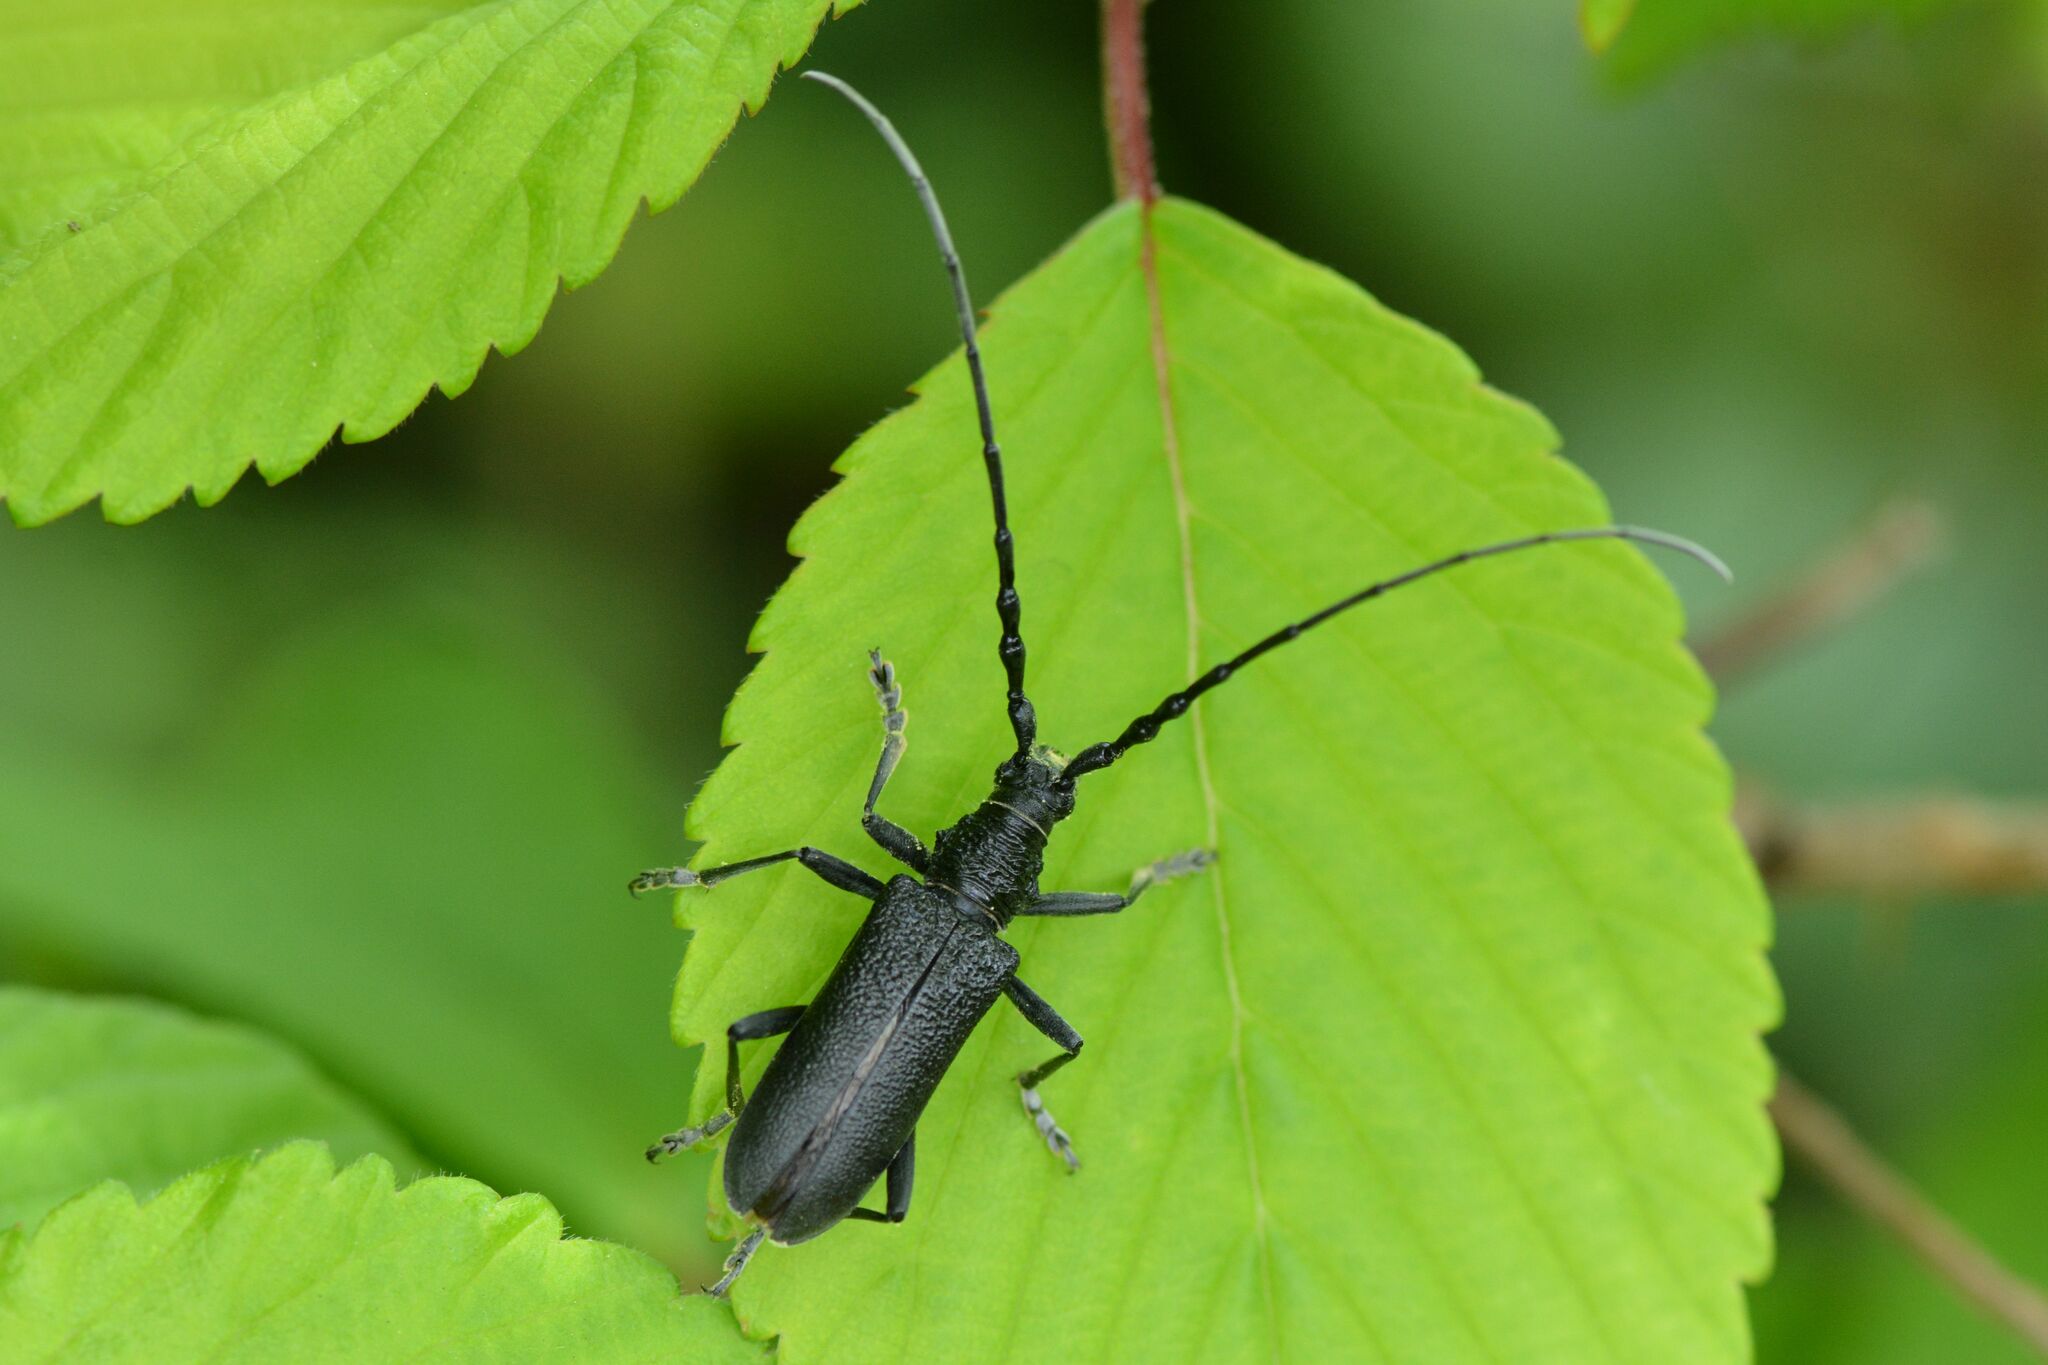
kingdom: Animalia
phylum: Arthropoda
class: Insecta
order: Coleoptera
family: Cerambycidae
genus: Cerambyx
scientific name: Cerambyx scopolii
